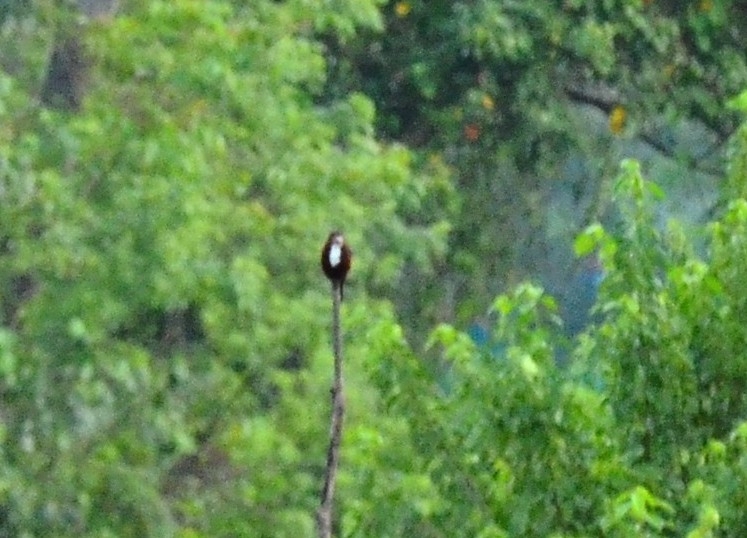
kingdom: Animalia
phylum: Chordata
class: Aves
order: Coraciiformes
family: Alcedinidae
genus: Halcyon
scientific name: Halcyon smyrnensis
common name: White-throated kingfisher
